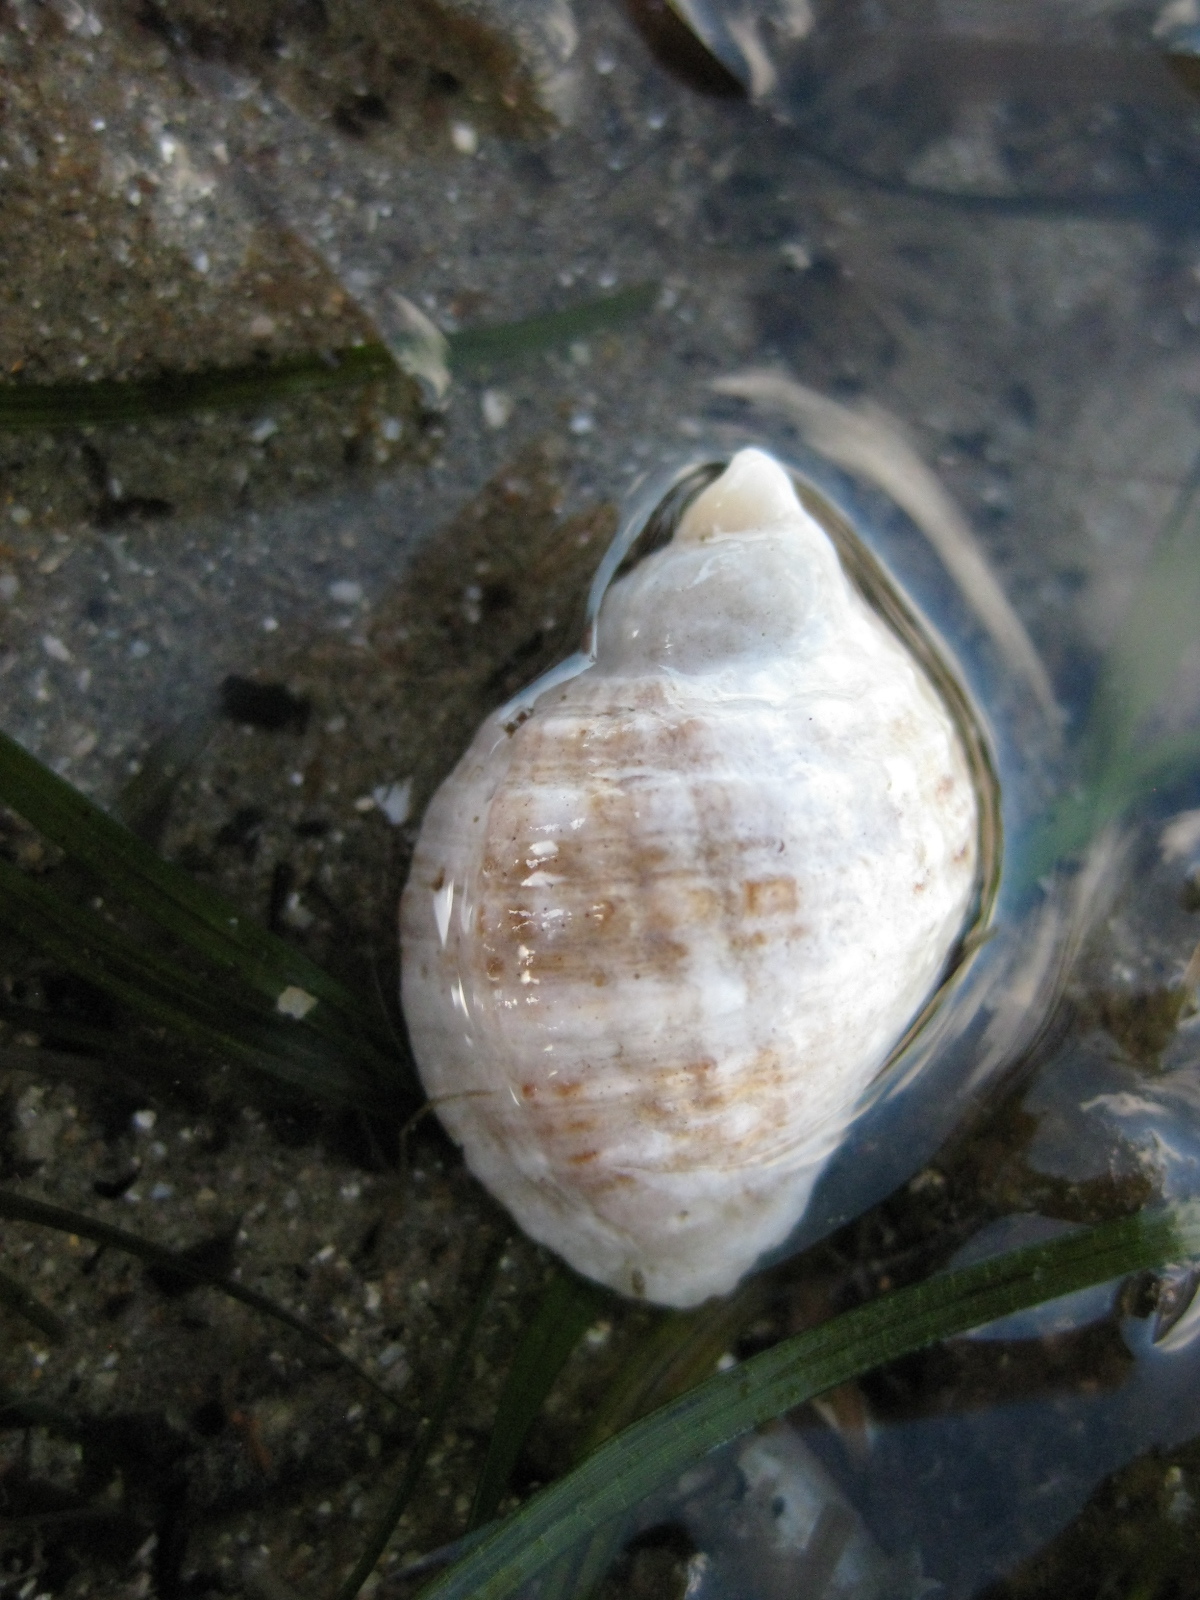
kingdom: Animalia
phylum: Mollusca
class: Gastropoda
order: Neogastropoda
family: Muricidae
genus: Dicathais
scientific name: Dicathais orbita
